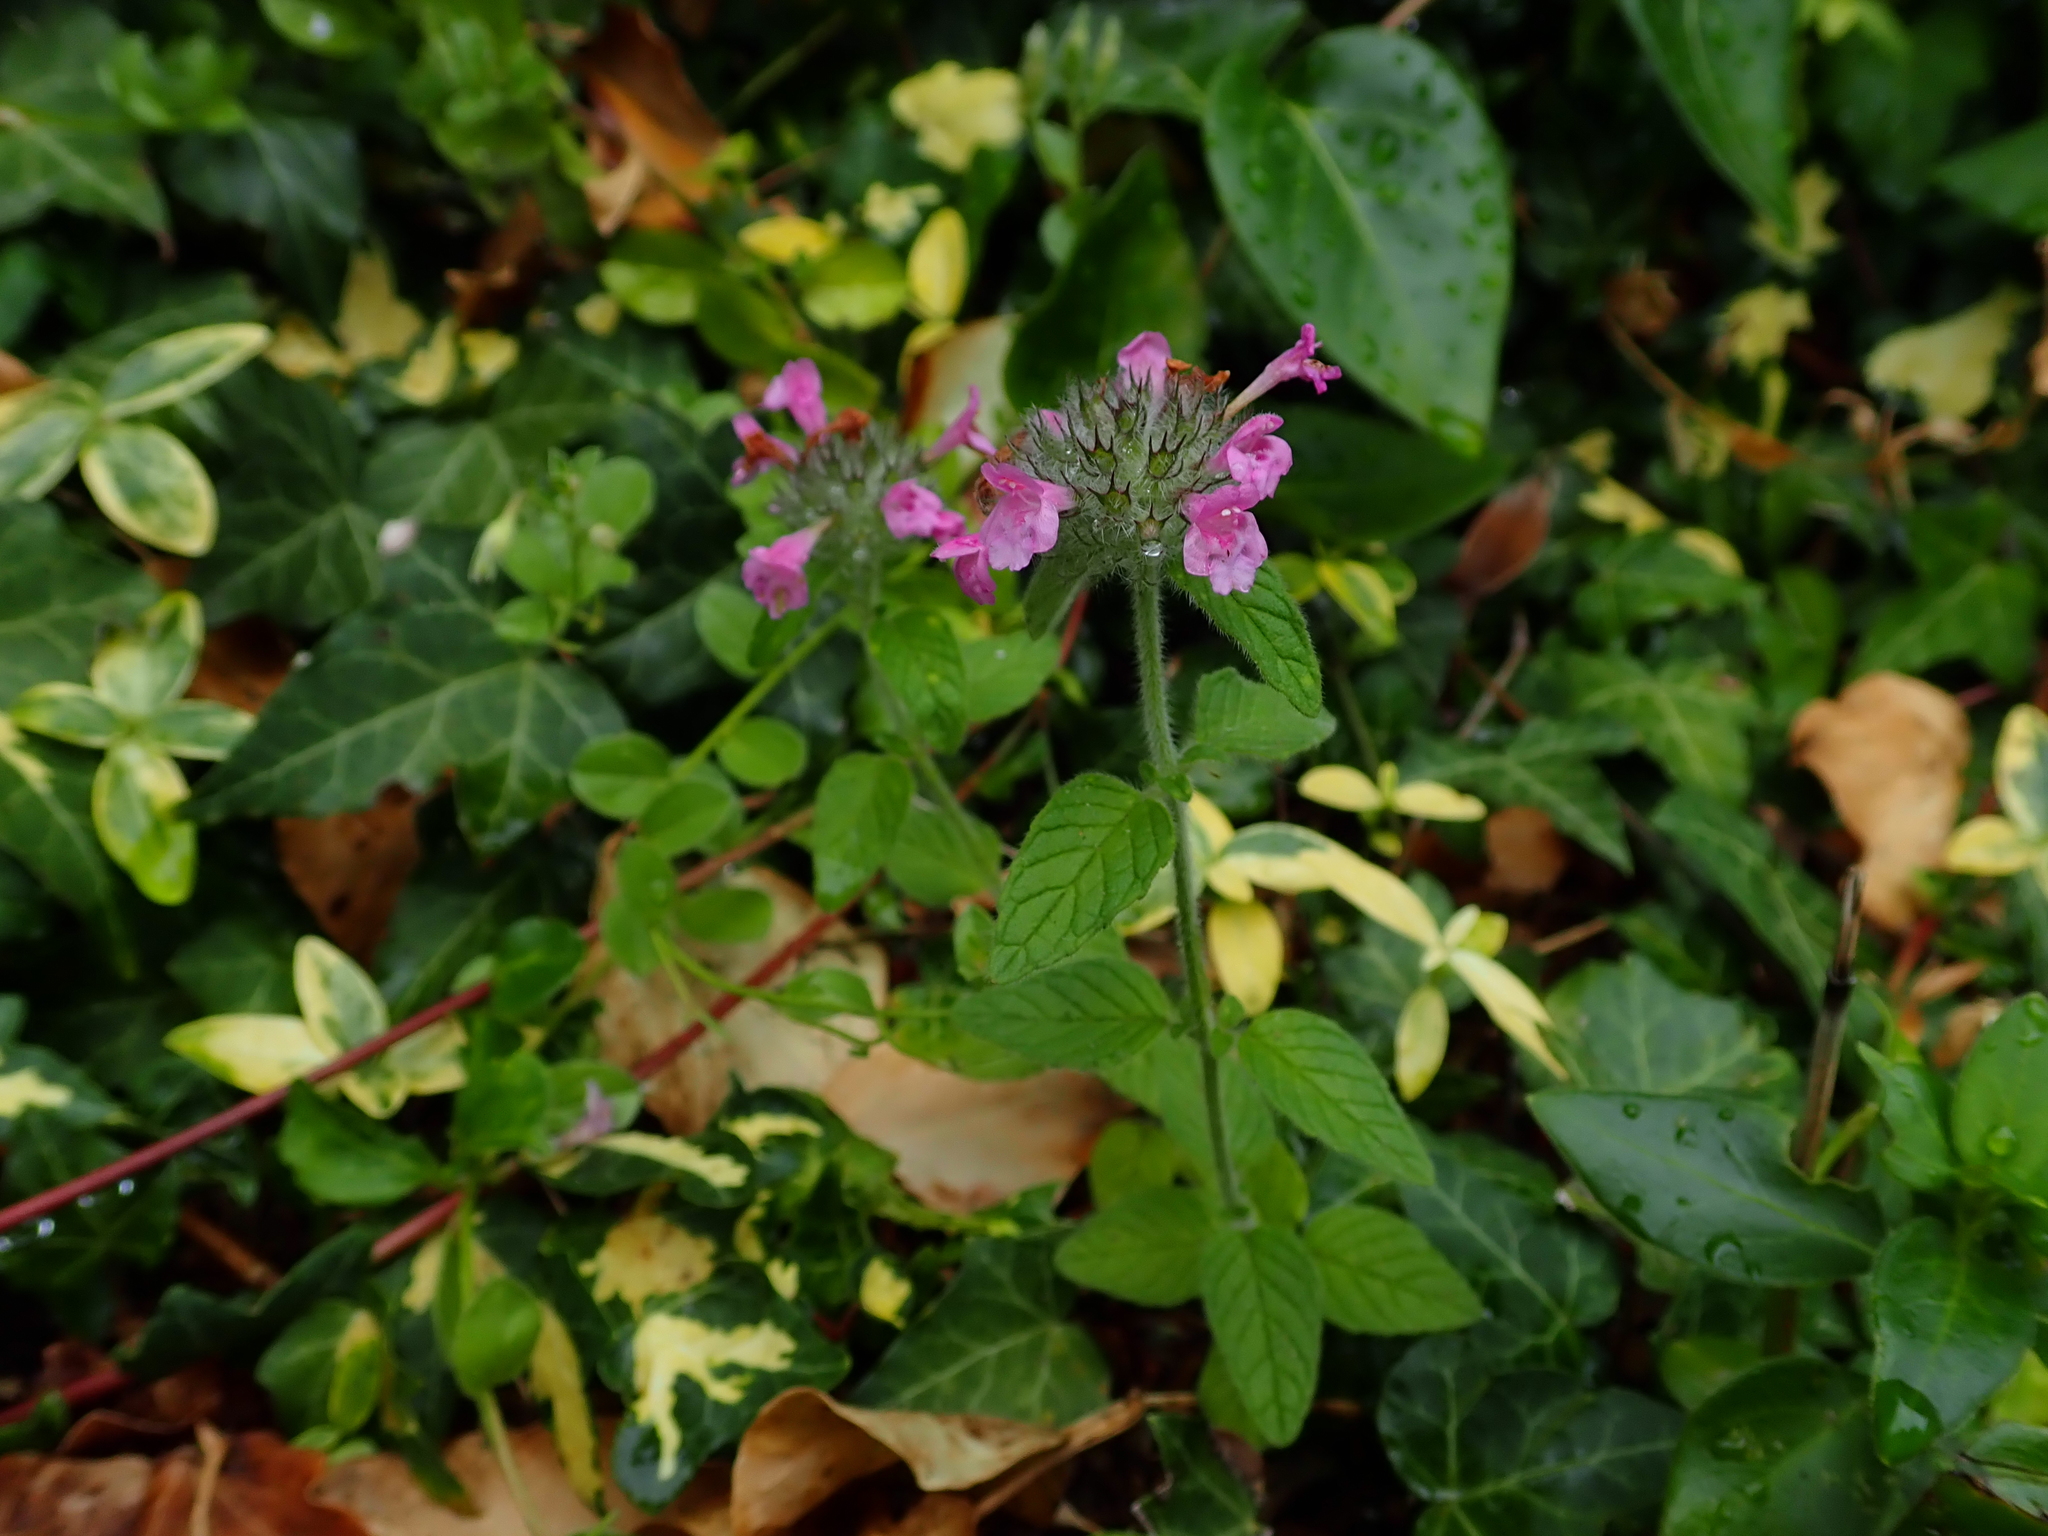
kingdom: Plantae
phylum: Tracheophyta
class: Magnoliopsida
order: Lamiales
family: Lamiaceae
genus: Clinopodium
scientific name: Clinopodium vulgare
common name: Wild basil
